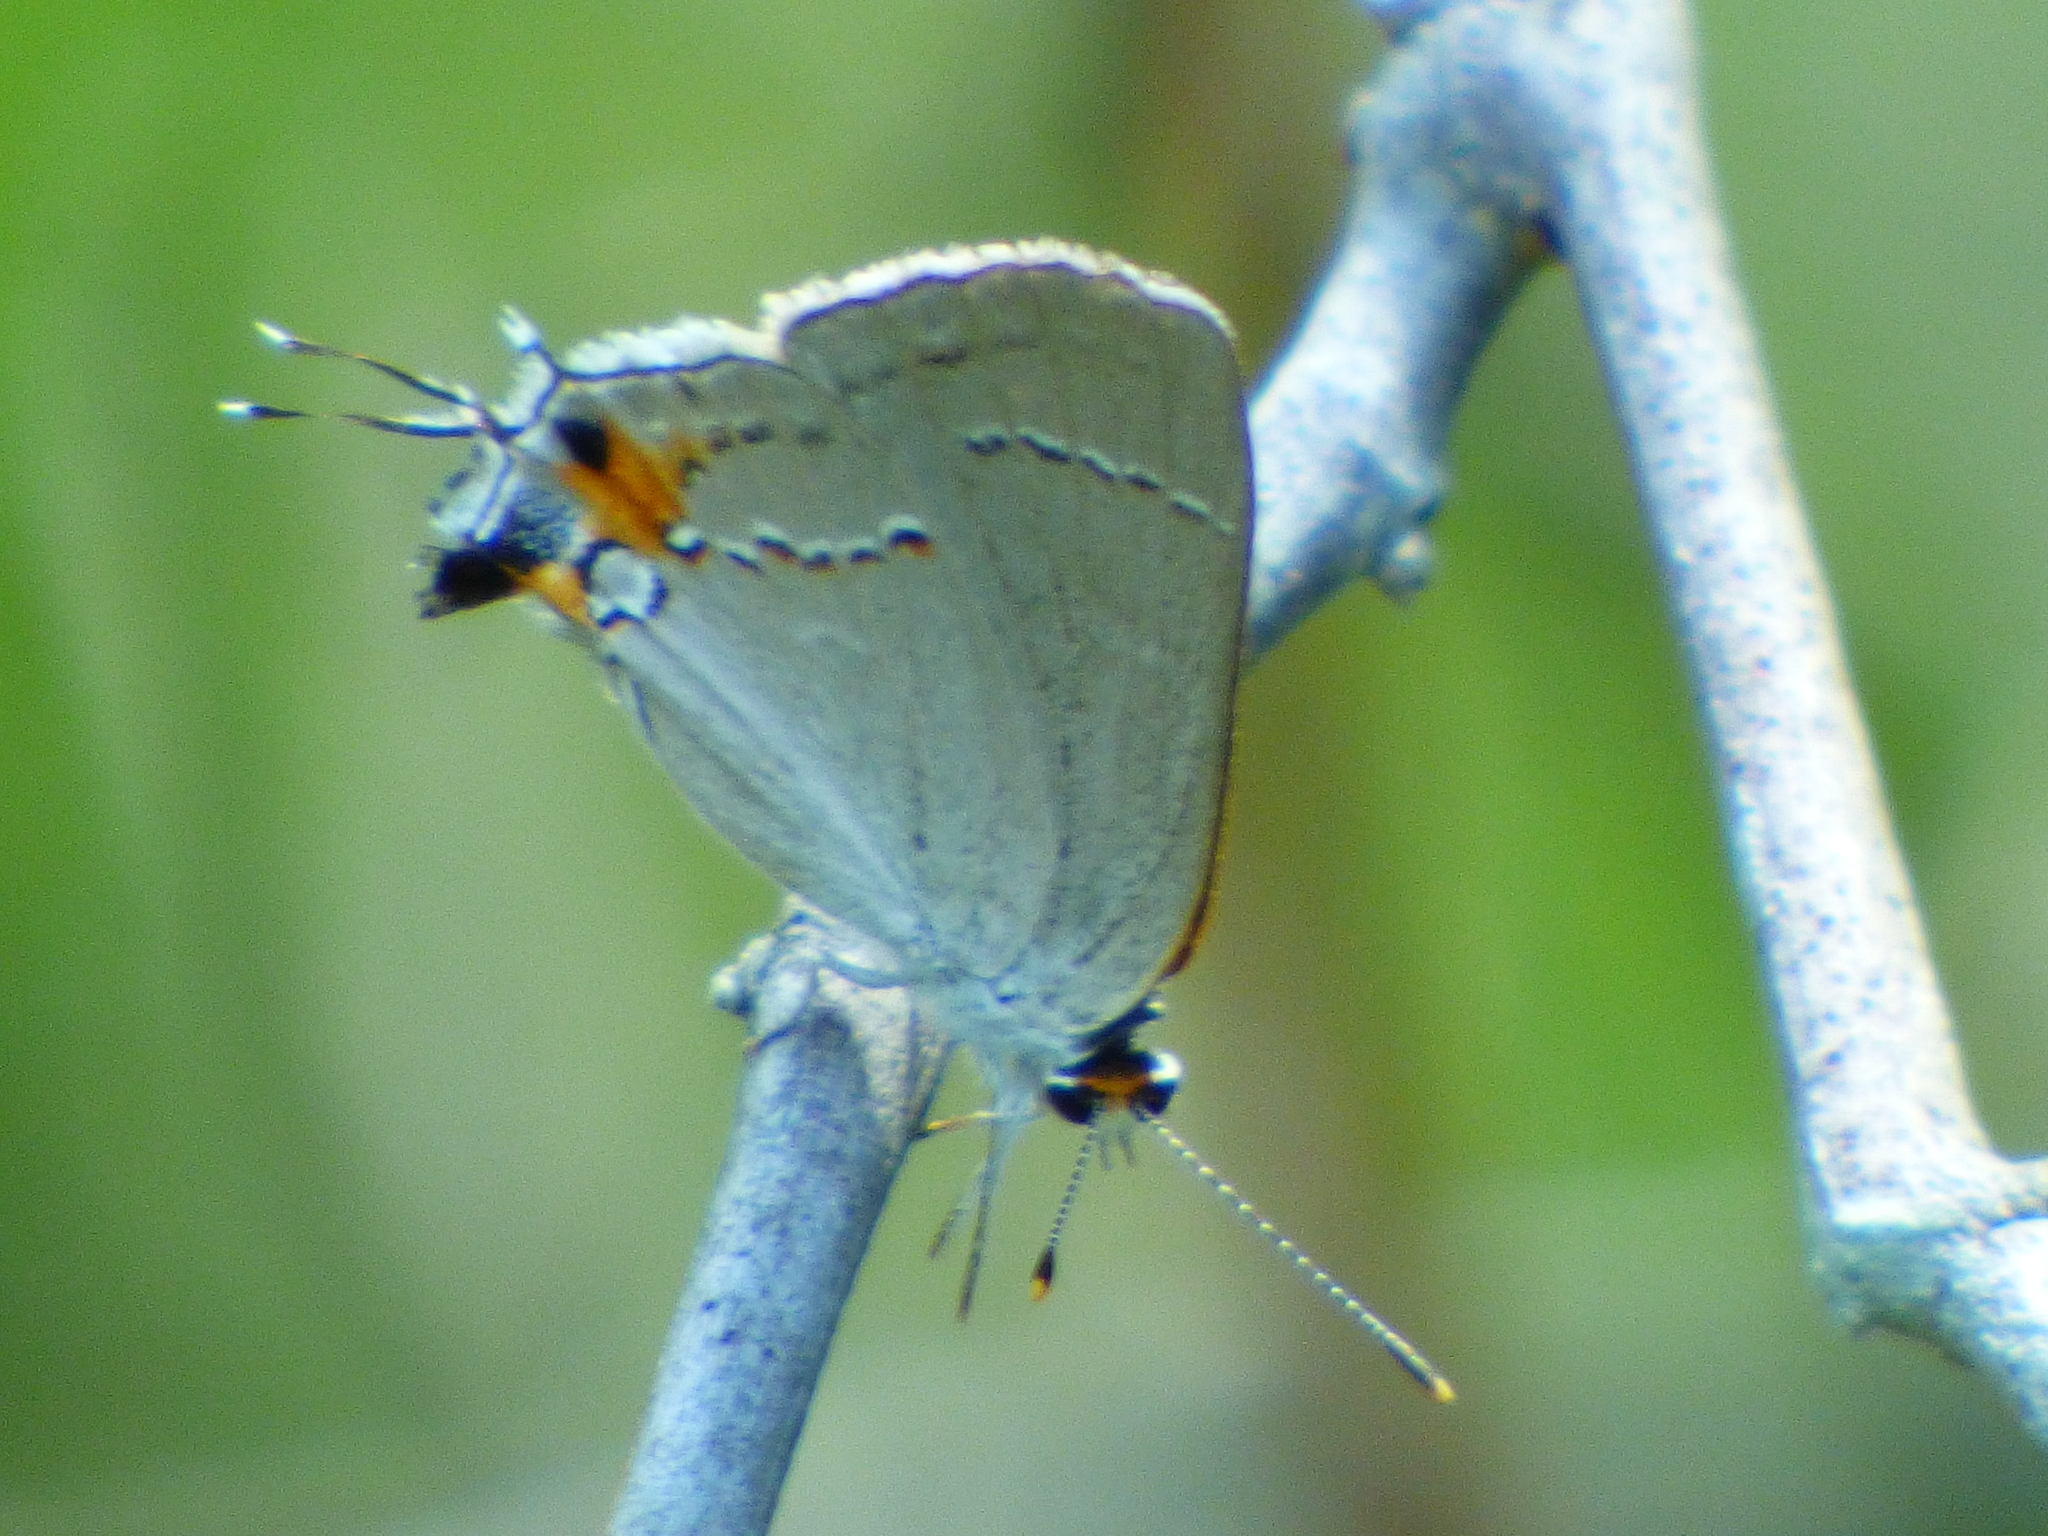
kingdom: Animalia
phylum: Arthropoda
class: Insecta
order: Lepidoptera
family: Lycaenidae
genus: Strymon
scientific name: Strymon melinus
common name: Gray hairstreak
